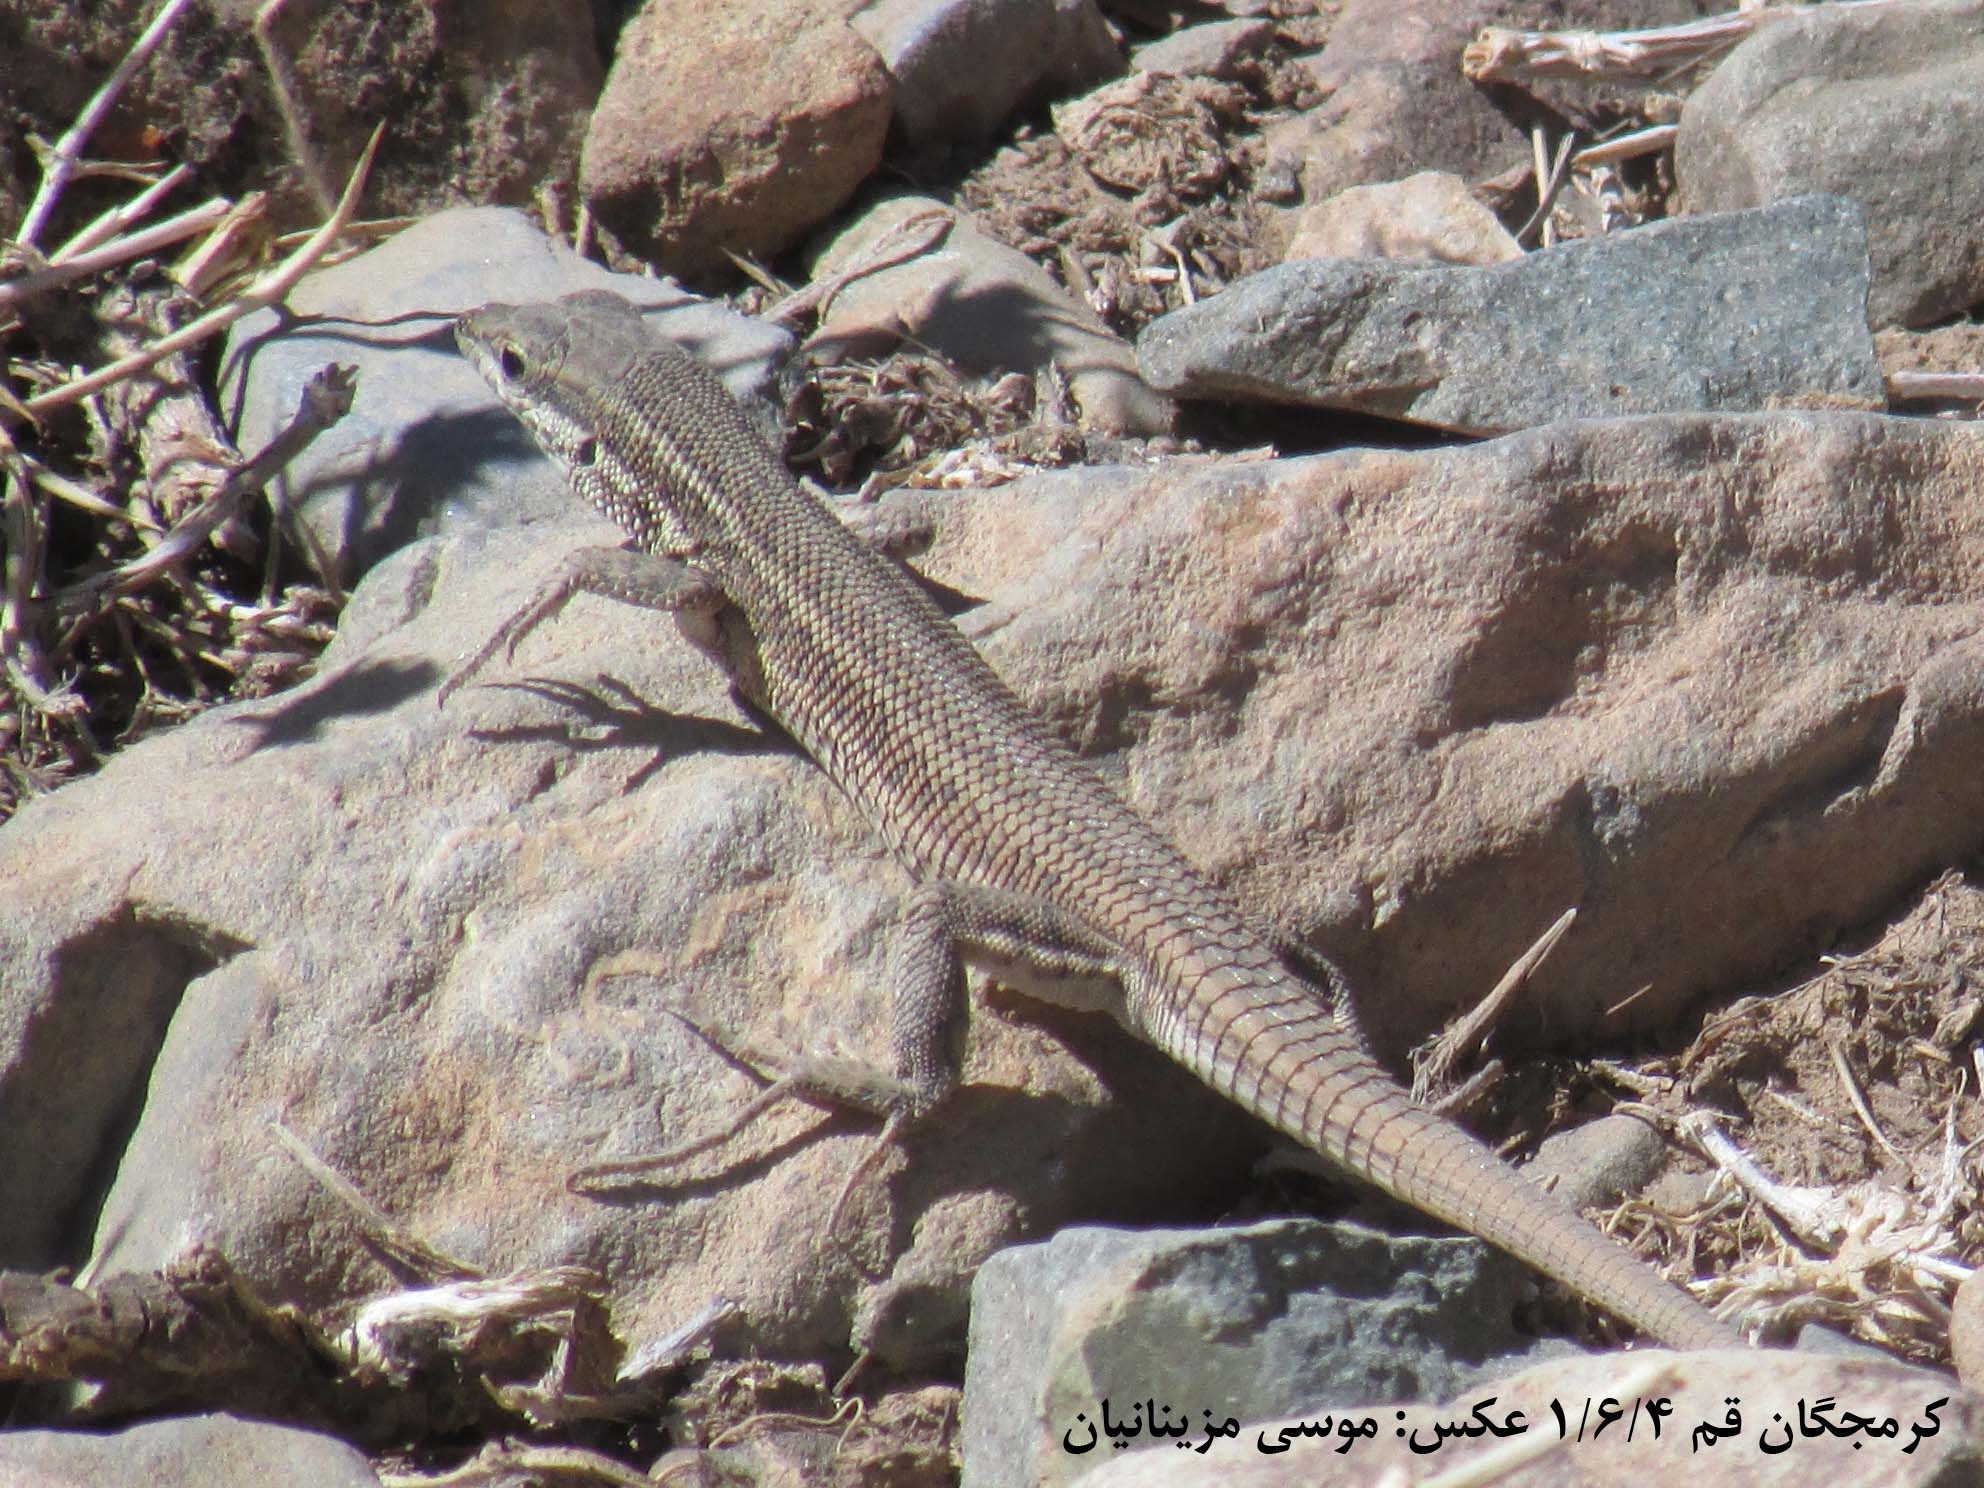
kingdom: Animalia
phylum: Chordata
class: Squamata
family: Lacertidae
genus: Ophisops
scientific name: Ophisops elegans
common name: Snake-eyed lizard
